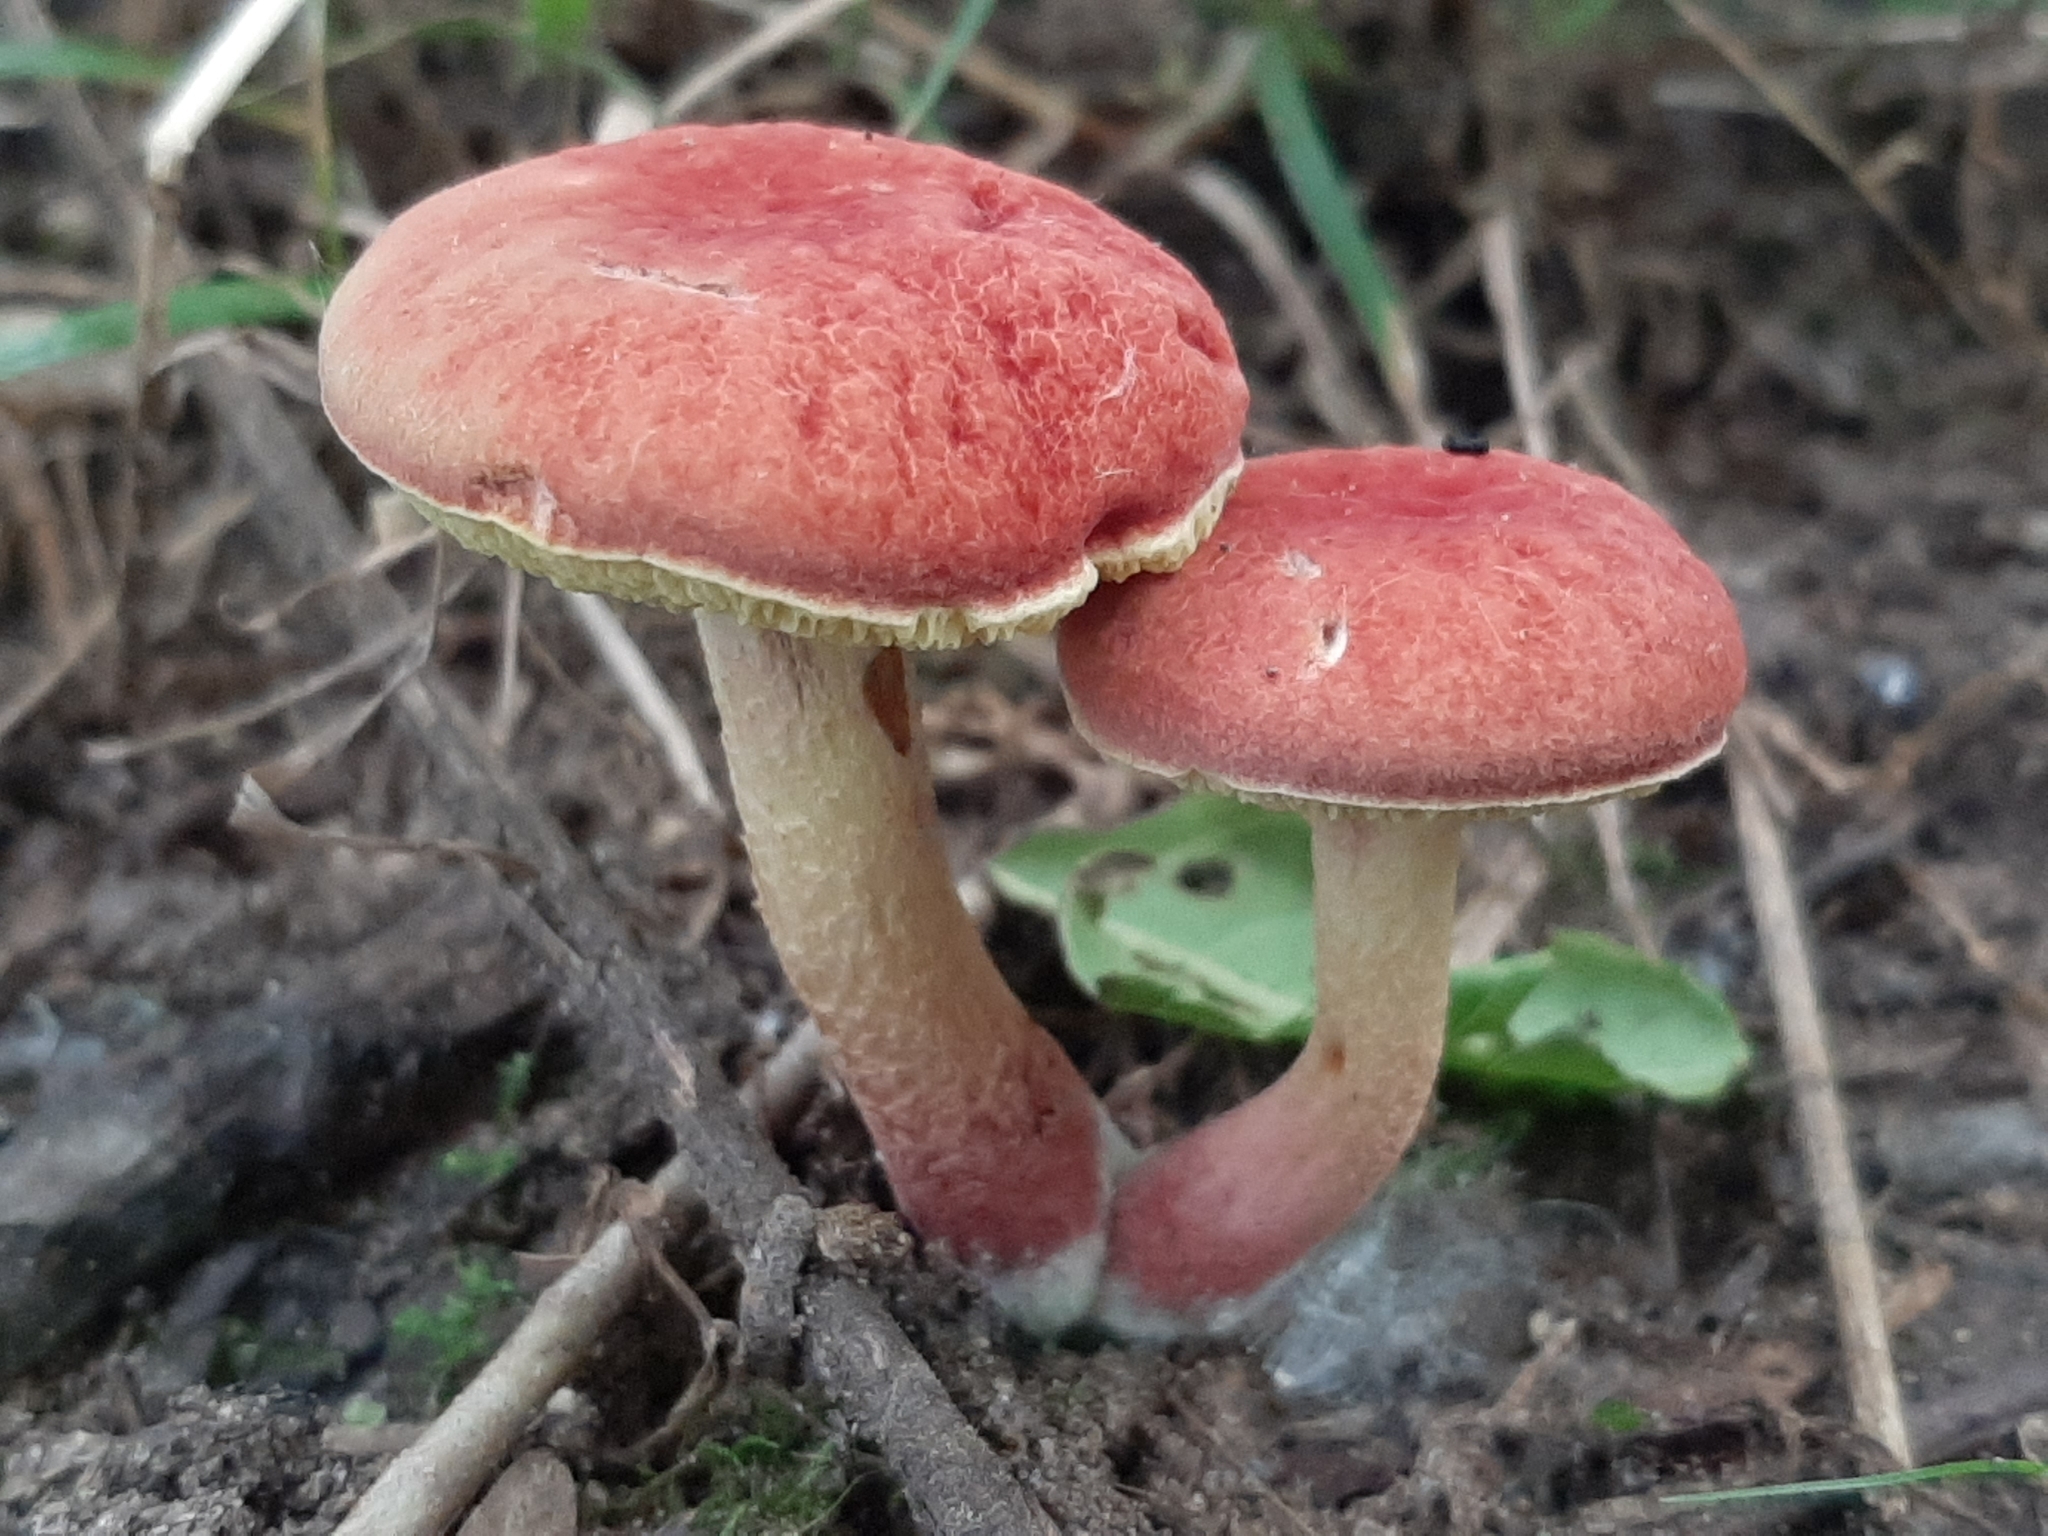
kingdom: Fungi
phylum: Basidiomycota
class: Agaricomycetes
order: Boletales
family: Boletaceae
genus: Hortiboletus
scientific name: Hortiboletus rubellus
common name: Ruby bolete
